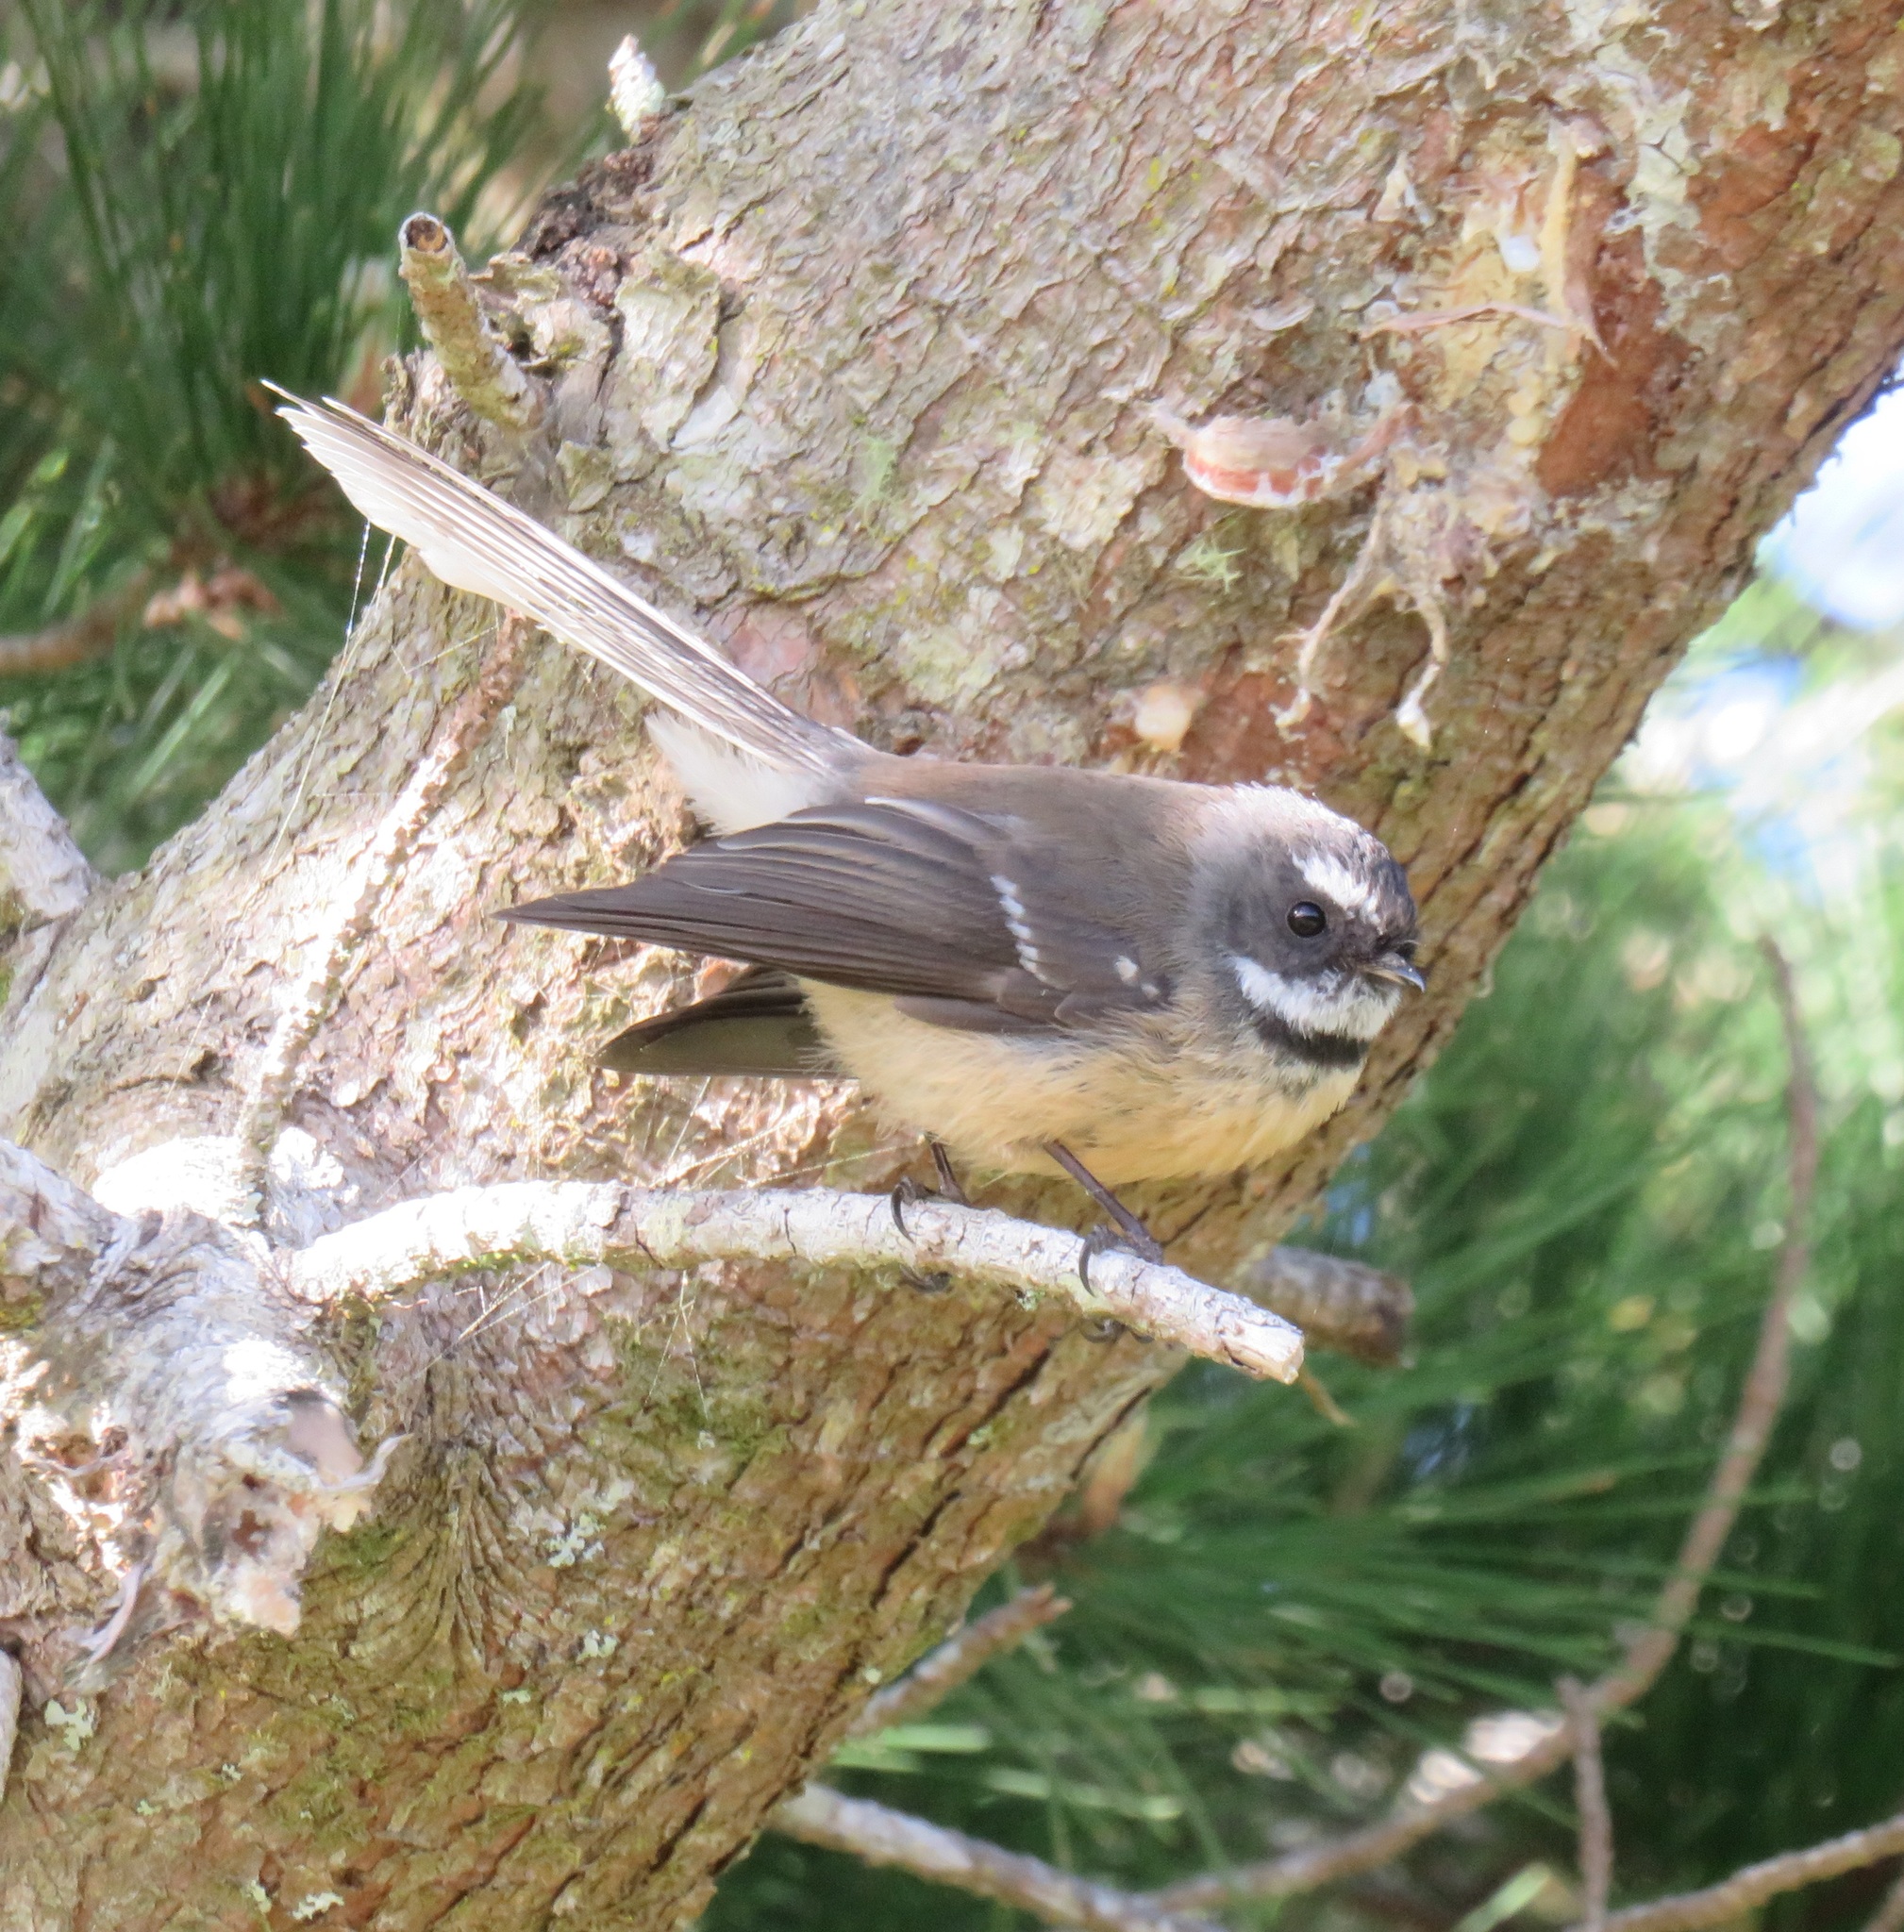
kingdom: Animalia
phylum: Chordata
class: Aves
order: Passeriformes
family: Rhipiduridae
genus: Rhipidura
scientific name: Rhipidura fuliginosa
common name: New zealand fantail
